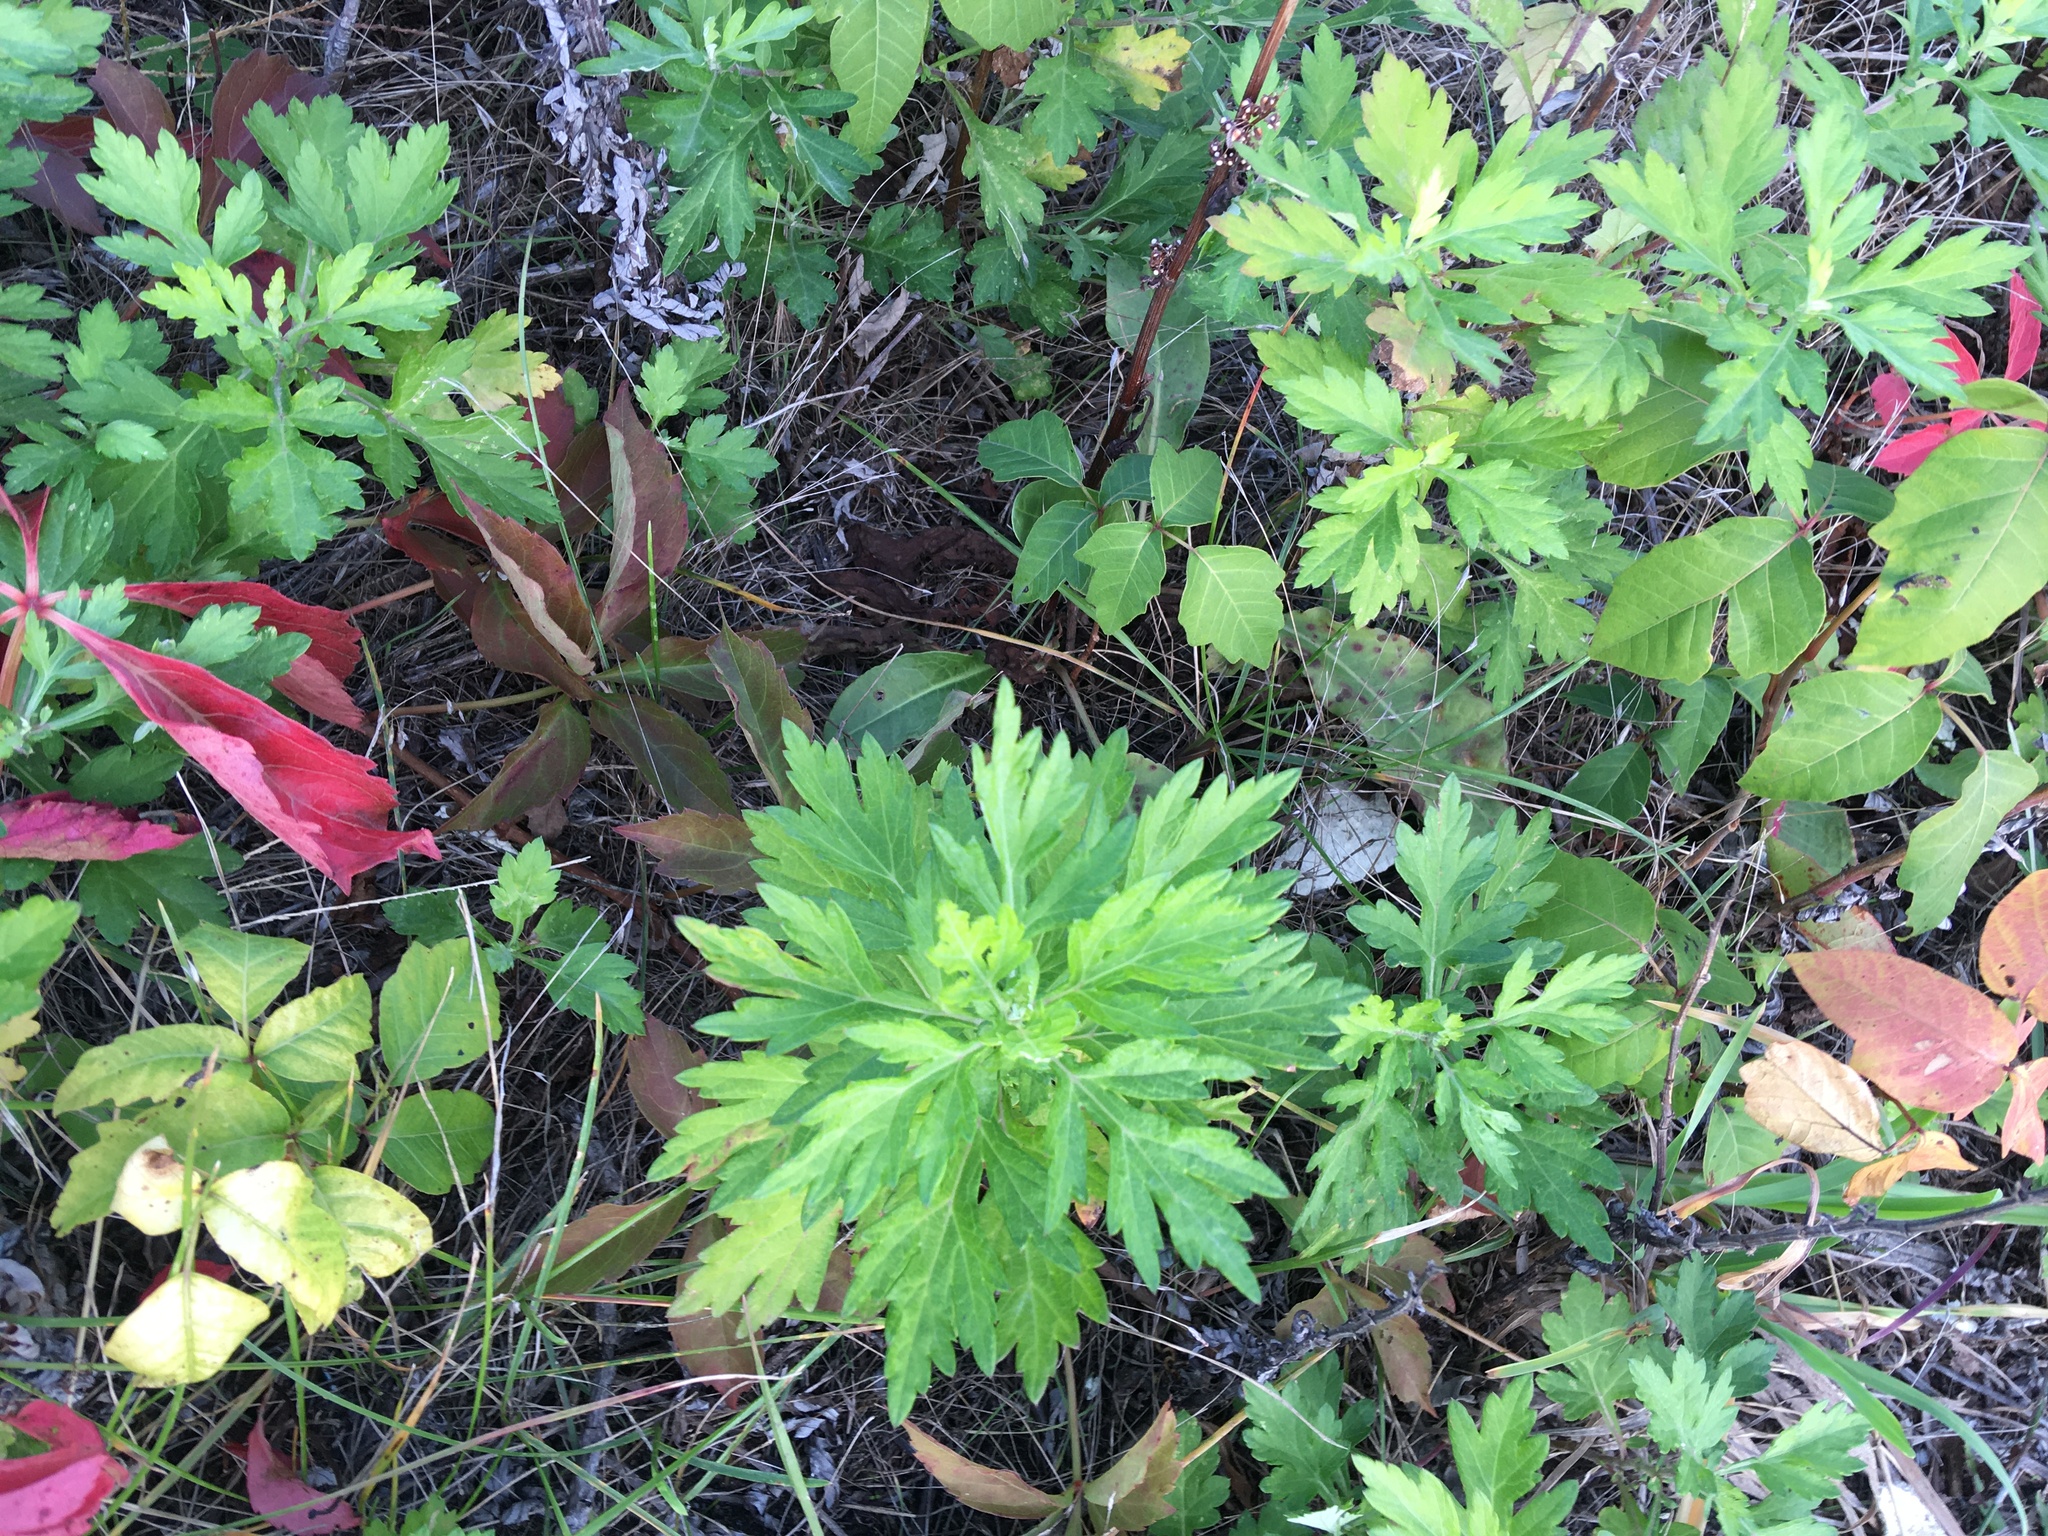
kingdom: Plantae
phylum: Tracheophyta
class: Magnoliopsida
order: Asterales
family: Asteraceae
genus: Artemisia
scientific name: Artemisia vulgaris
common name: Mugwort
